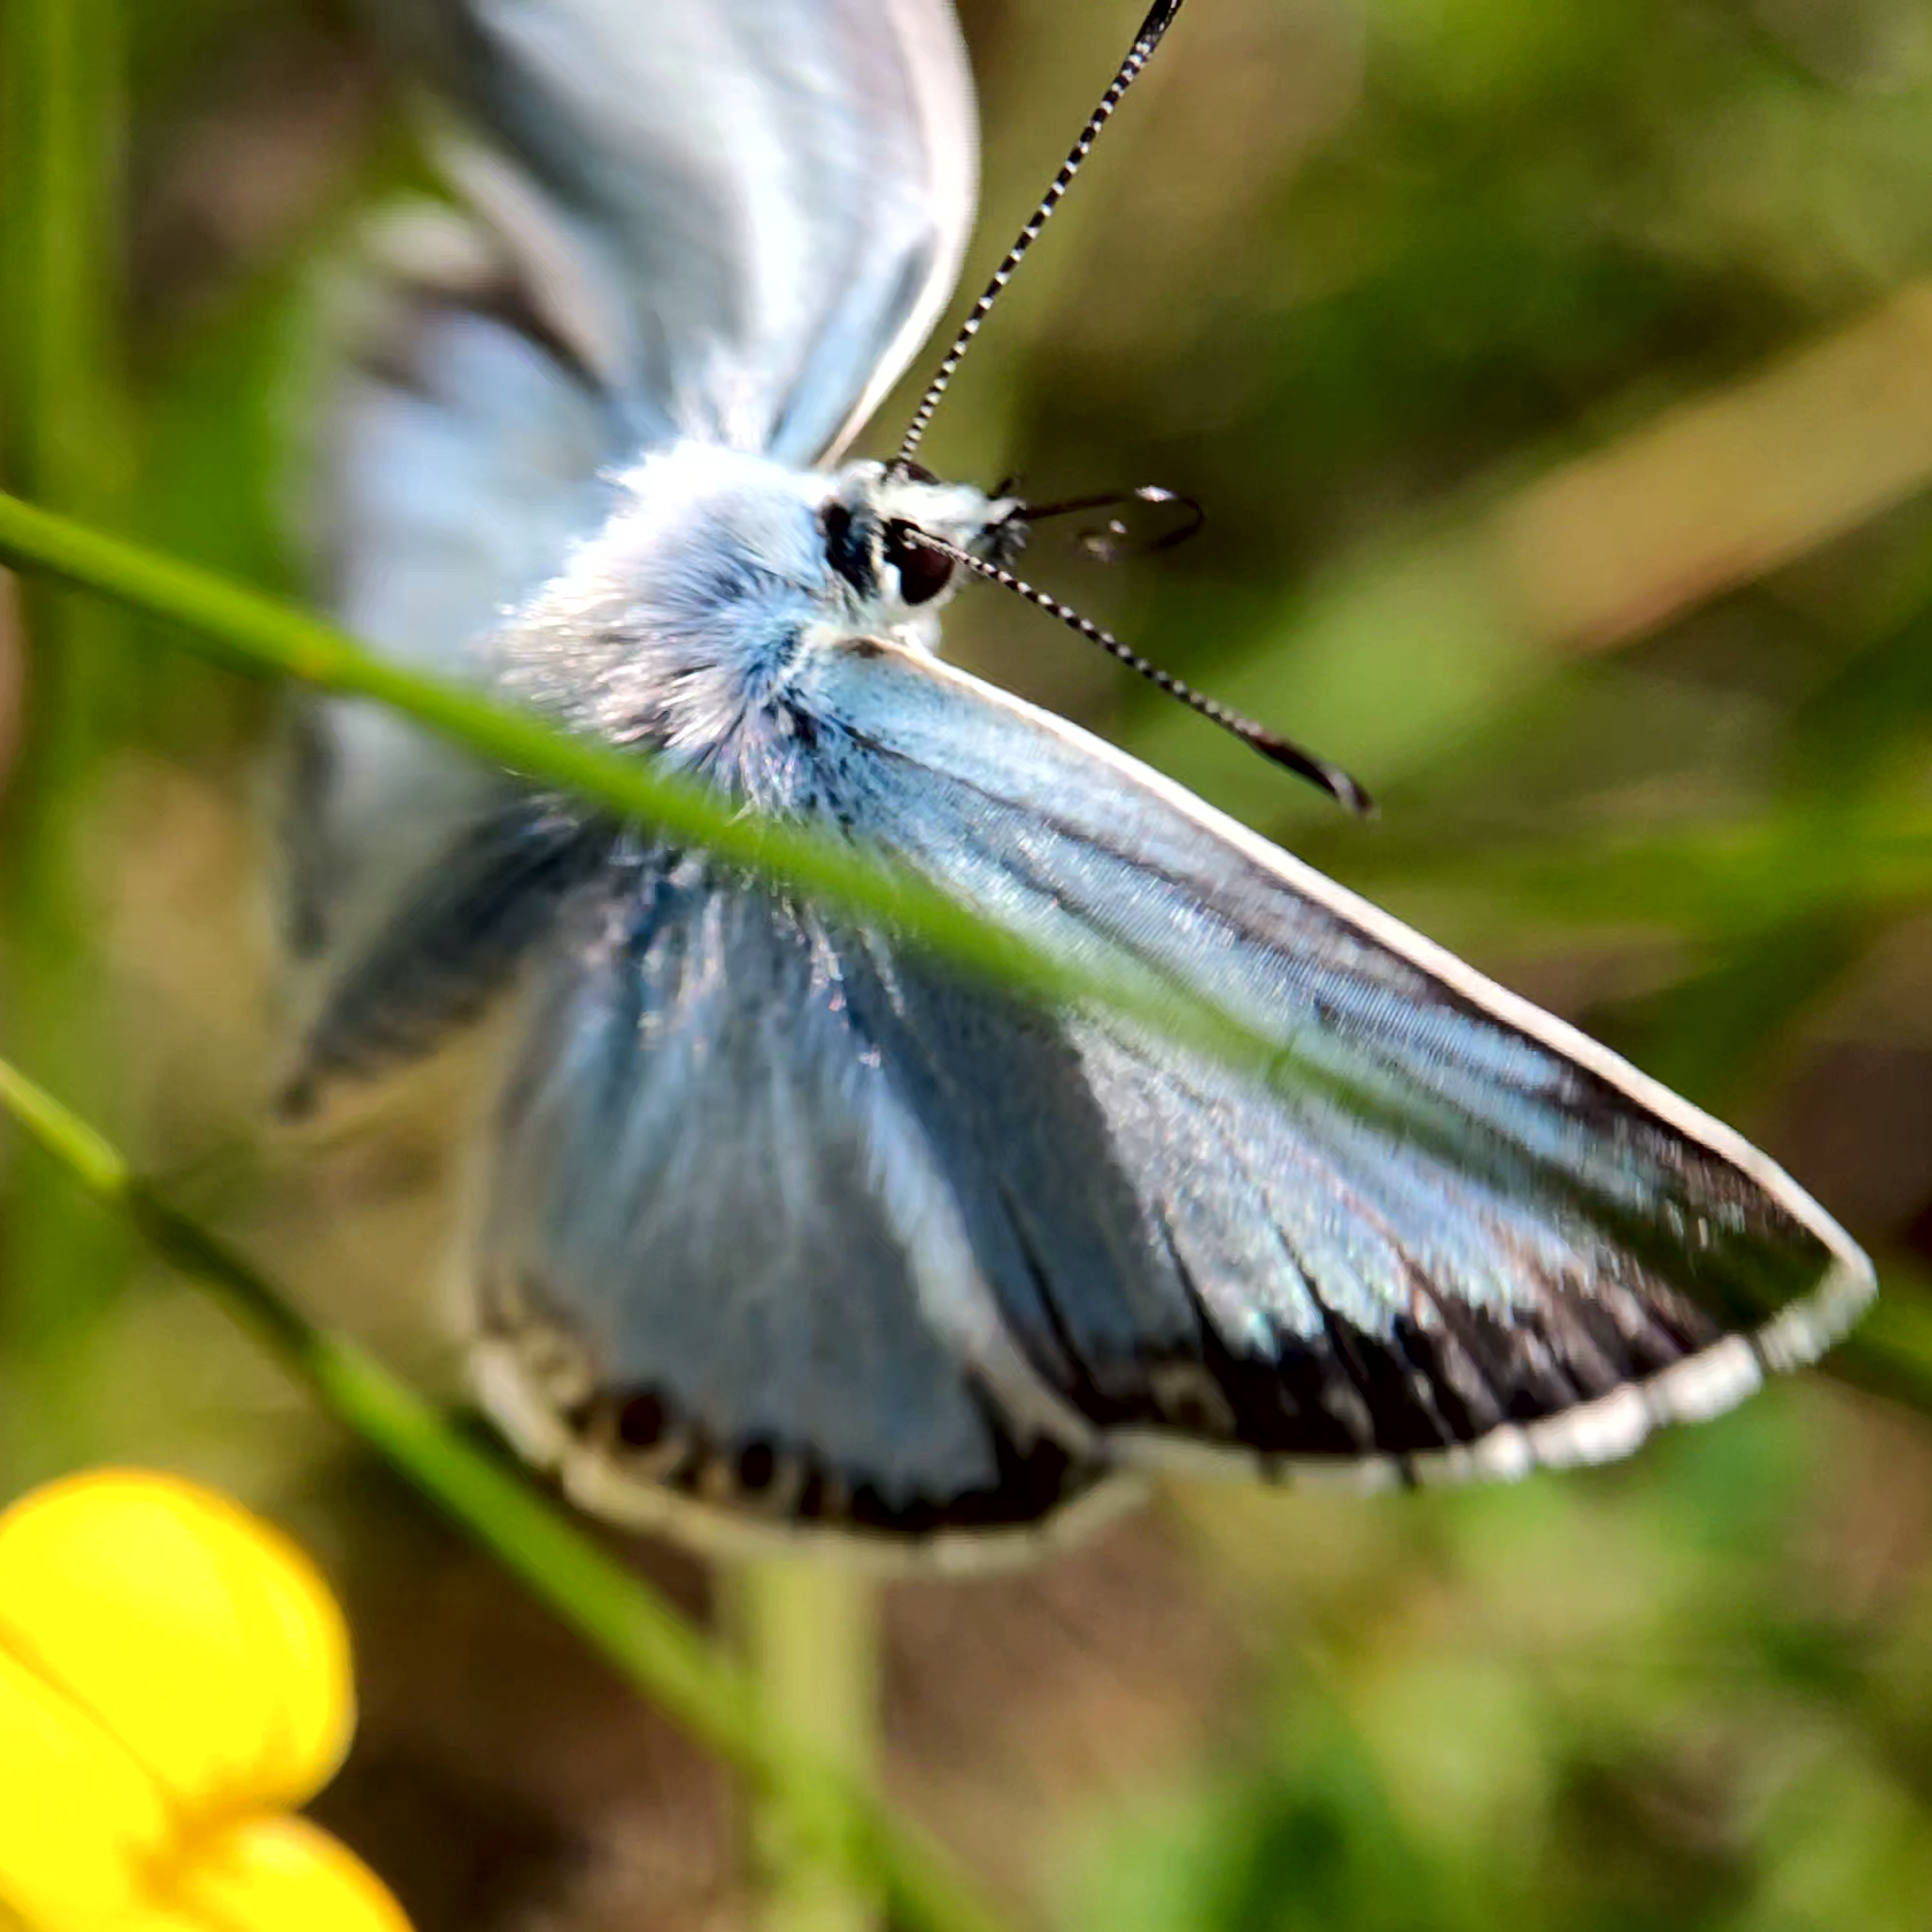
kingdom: Animalia
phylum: Arthropoda
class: Insecta
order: Lepidoptera
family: Lycaenidae
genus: Lysandra
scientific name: Lysandra coridon
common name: Chalkhill blue
